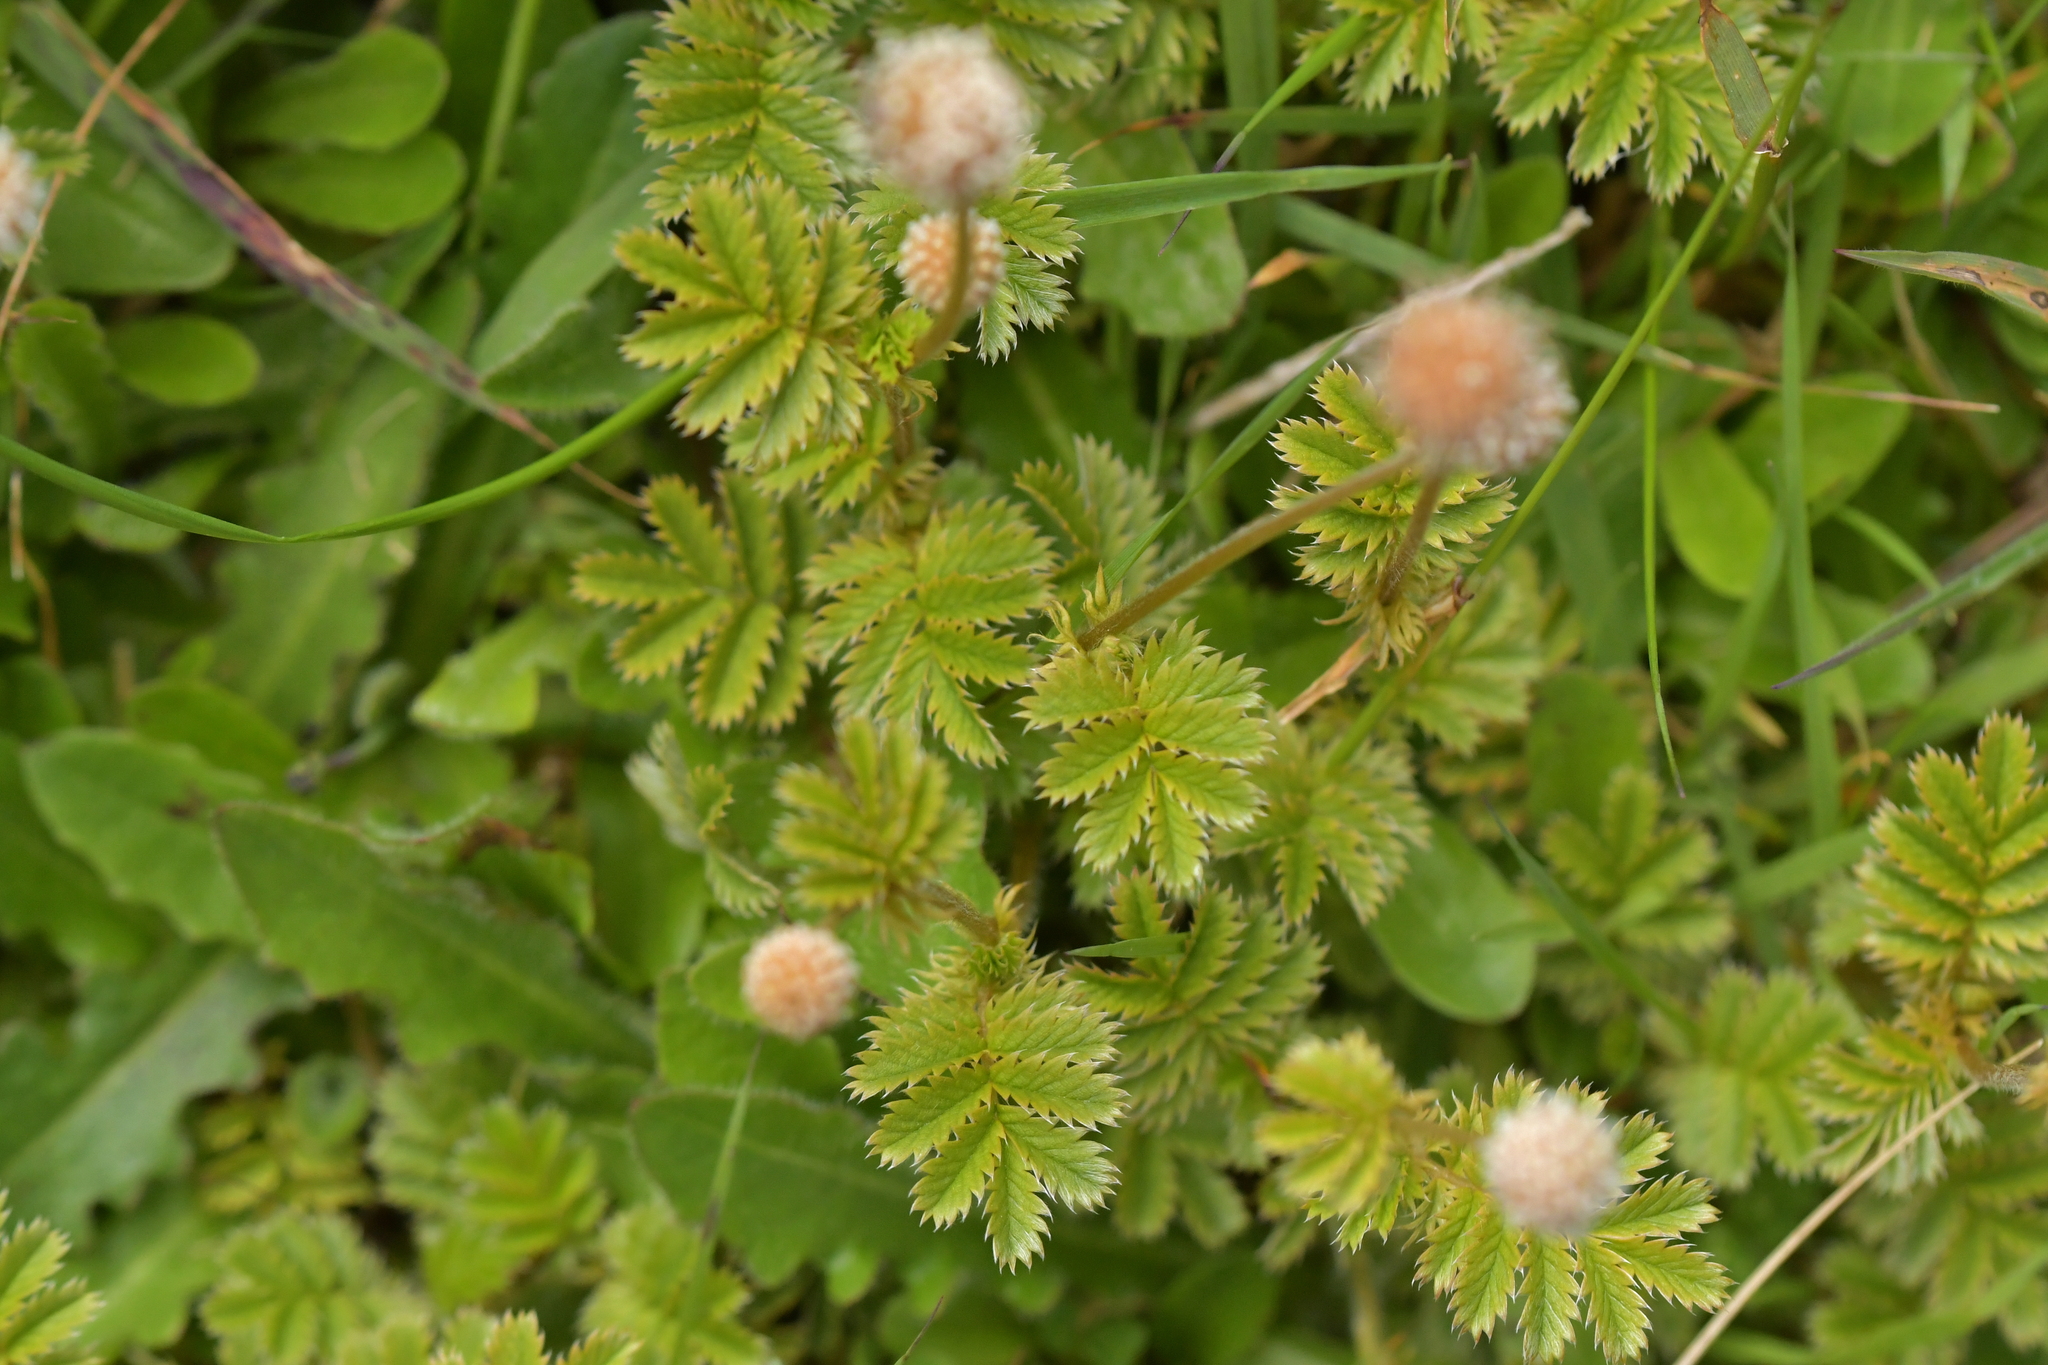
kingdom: Plantae
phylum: Tracheophyta
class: Magnoliopsida
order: Rosales
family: Rosaceae
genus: Acaena
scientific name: Acaena anserinifolia
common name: Bronze pirri-pirri-bur
